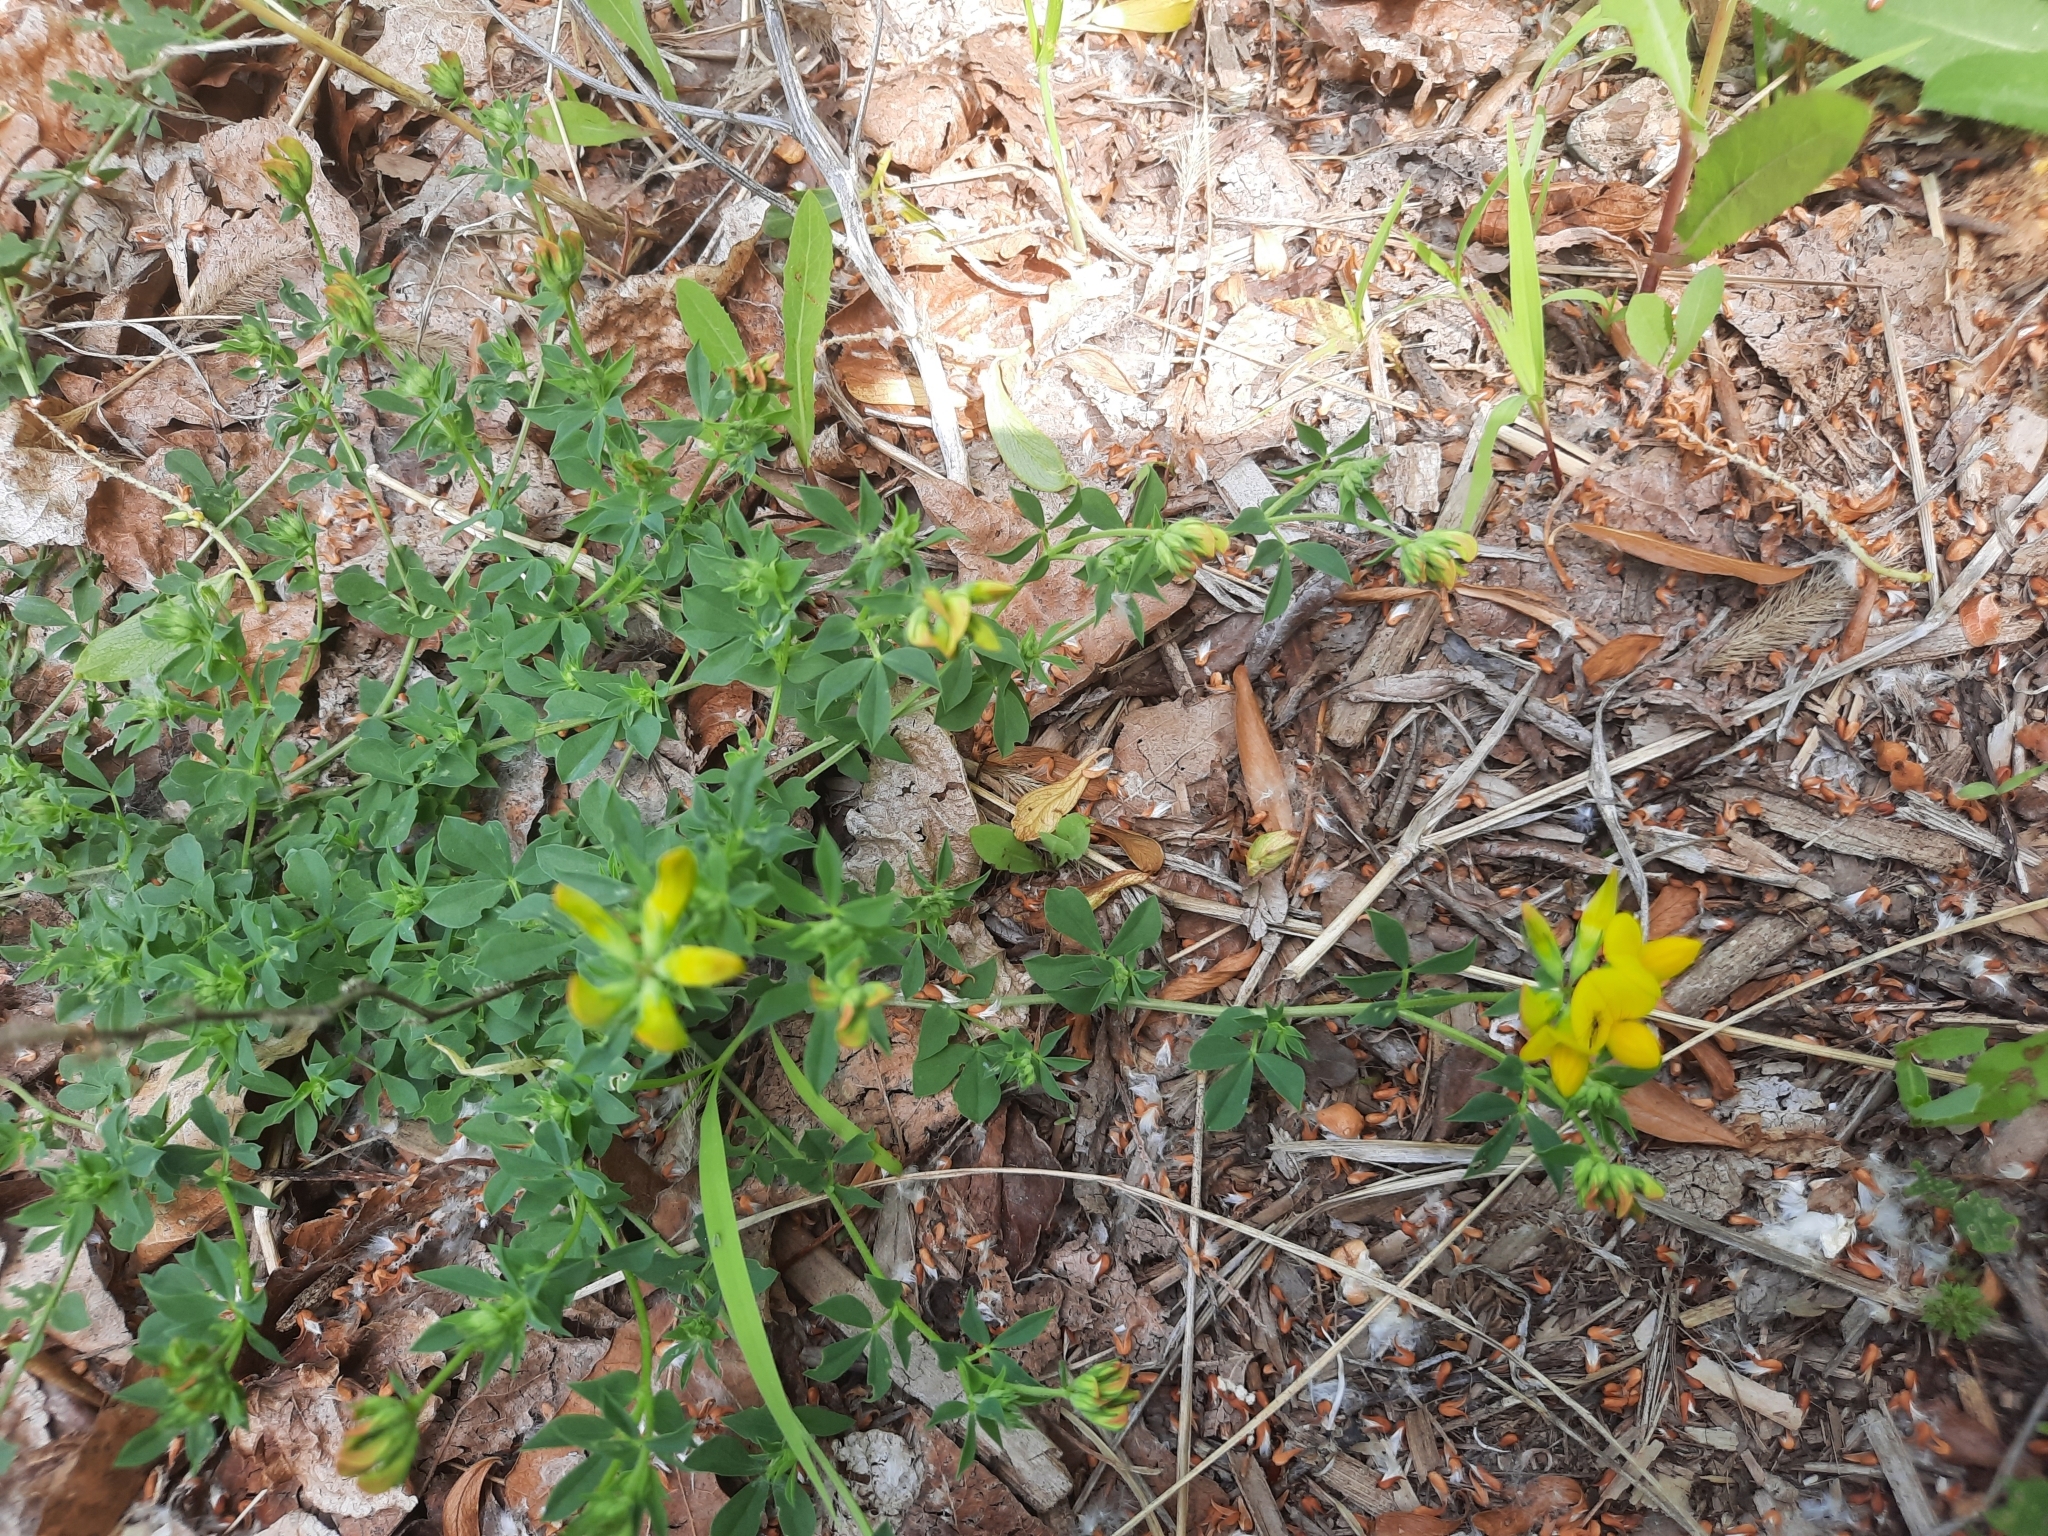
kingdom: Plantae
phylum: Tracheophyta
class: Magnoliopsida
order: Fabales
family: Fabaceae
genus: Lotus
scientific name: Lotus corniculatus
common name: Common bird's-foot-trefoil
